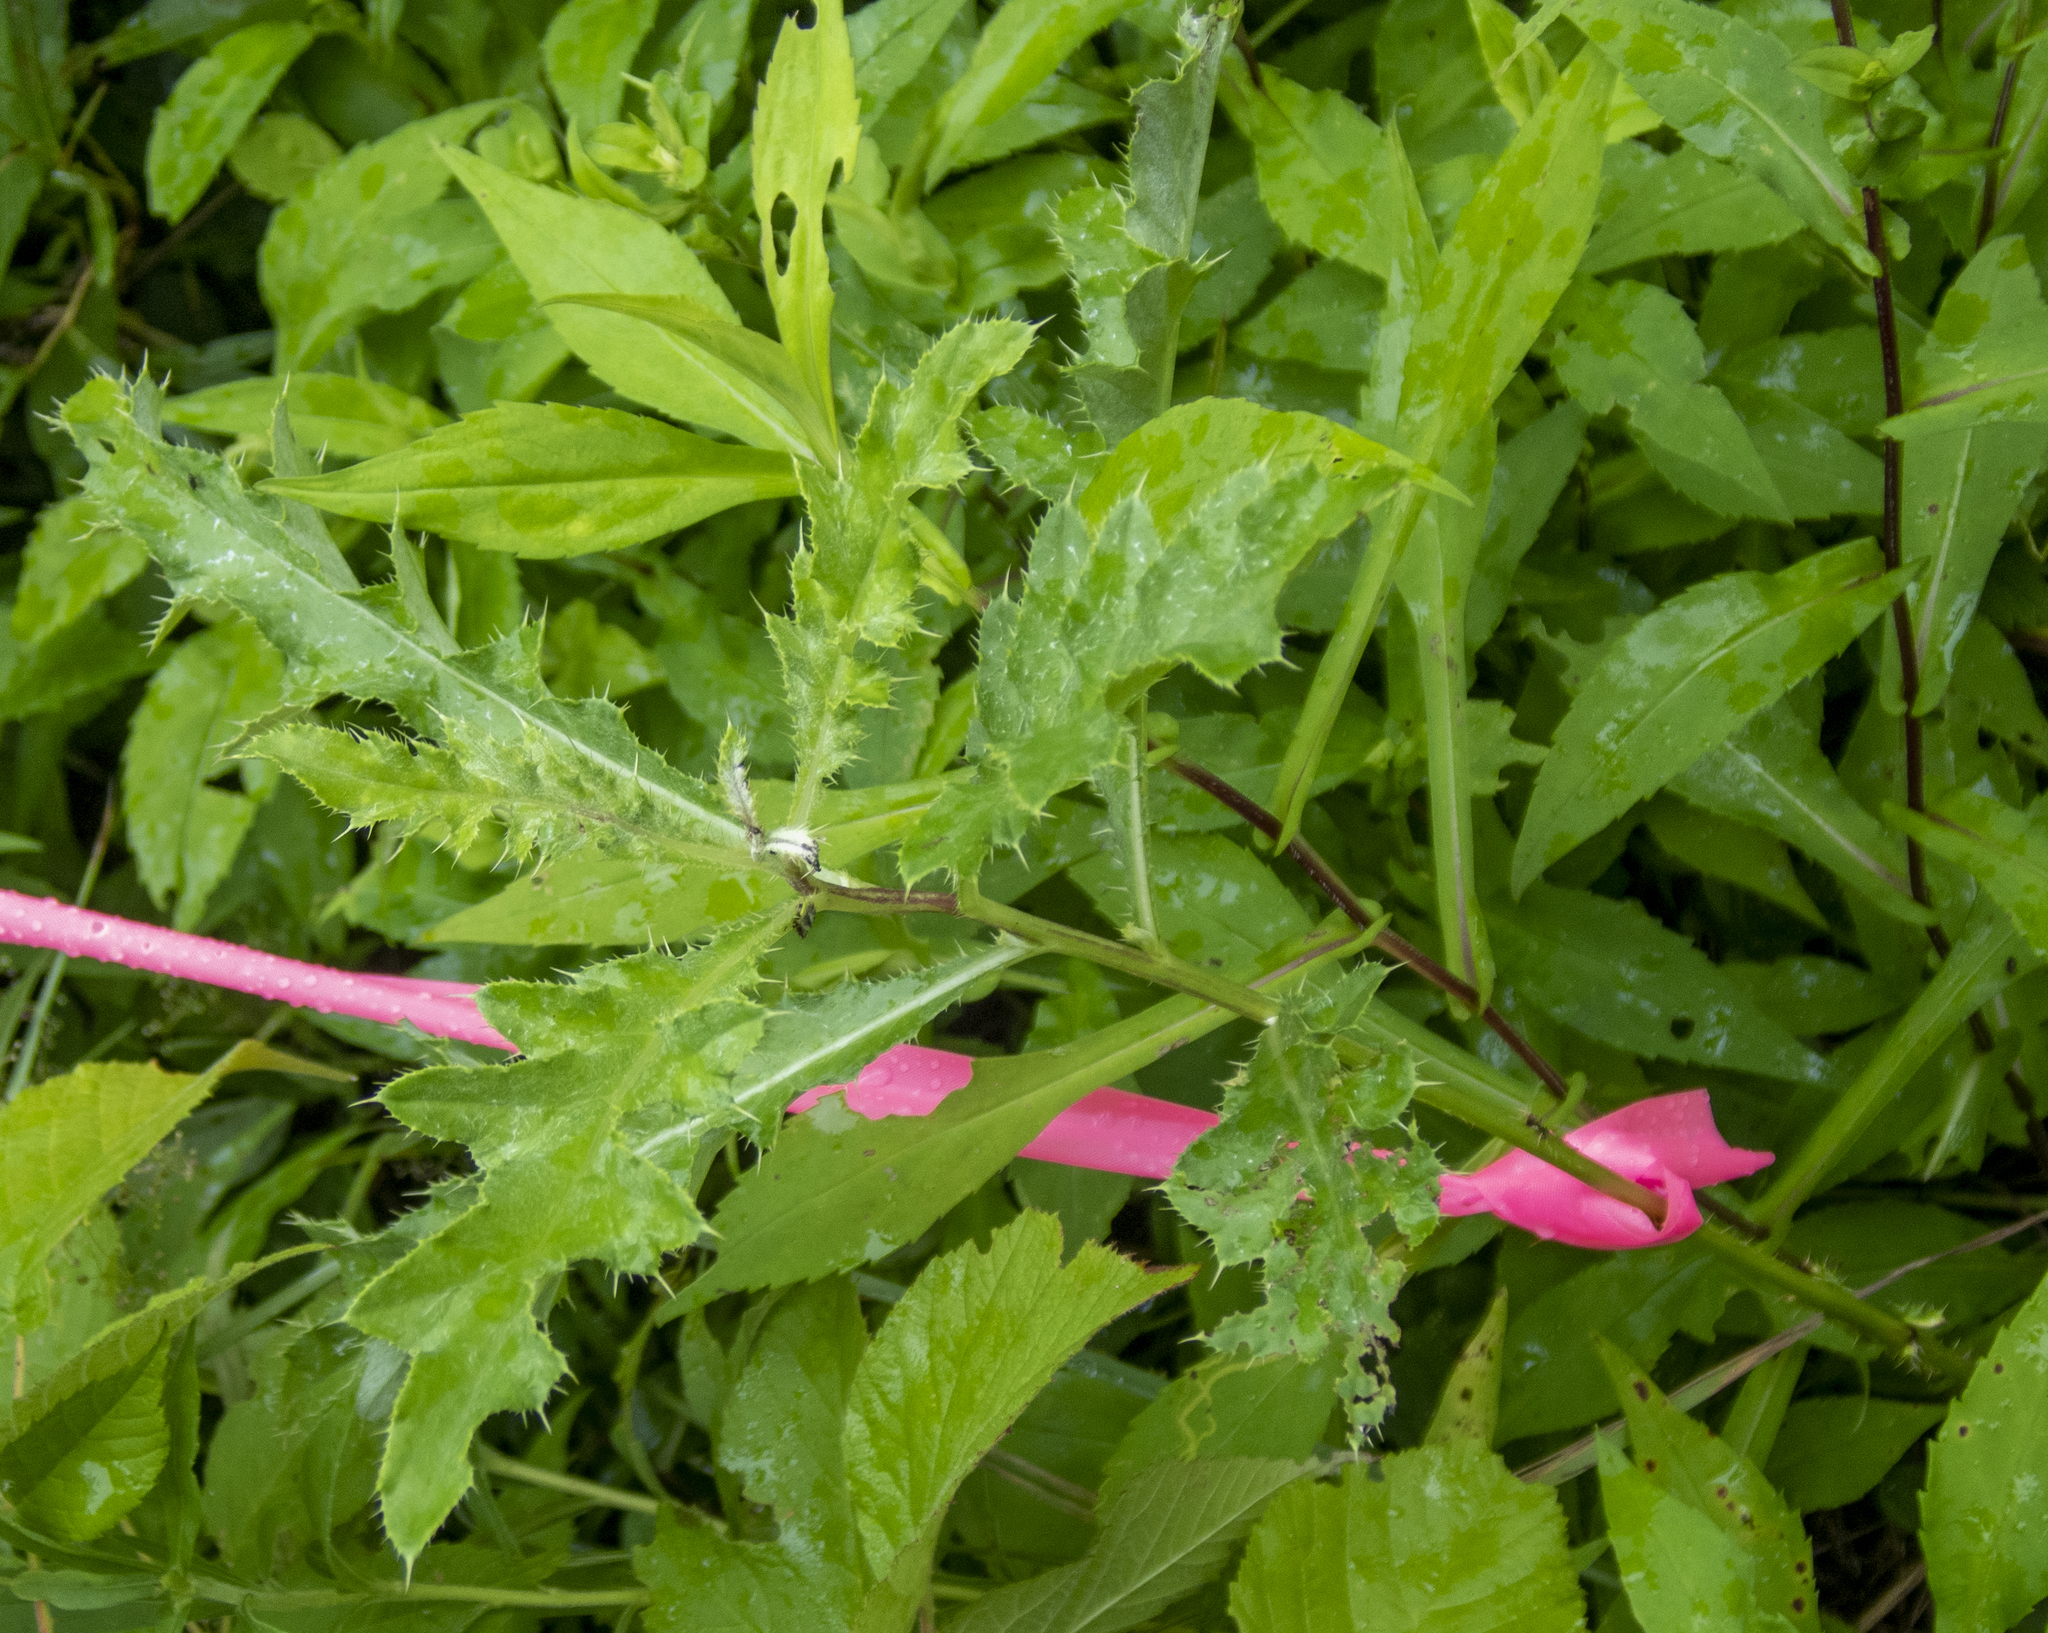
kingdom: Plantae
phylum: Tracheophyta
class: Magnoliopsida
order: Asterales
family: Asteraceae
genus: Cirsium
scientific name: Cirsium arvense
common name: Creeping thistle
